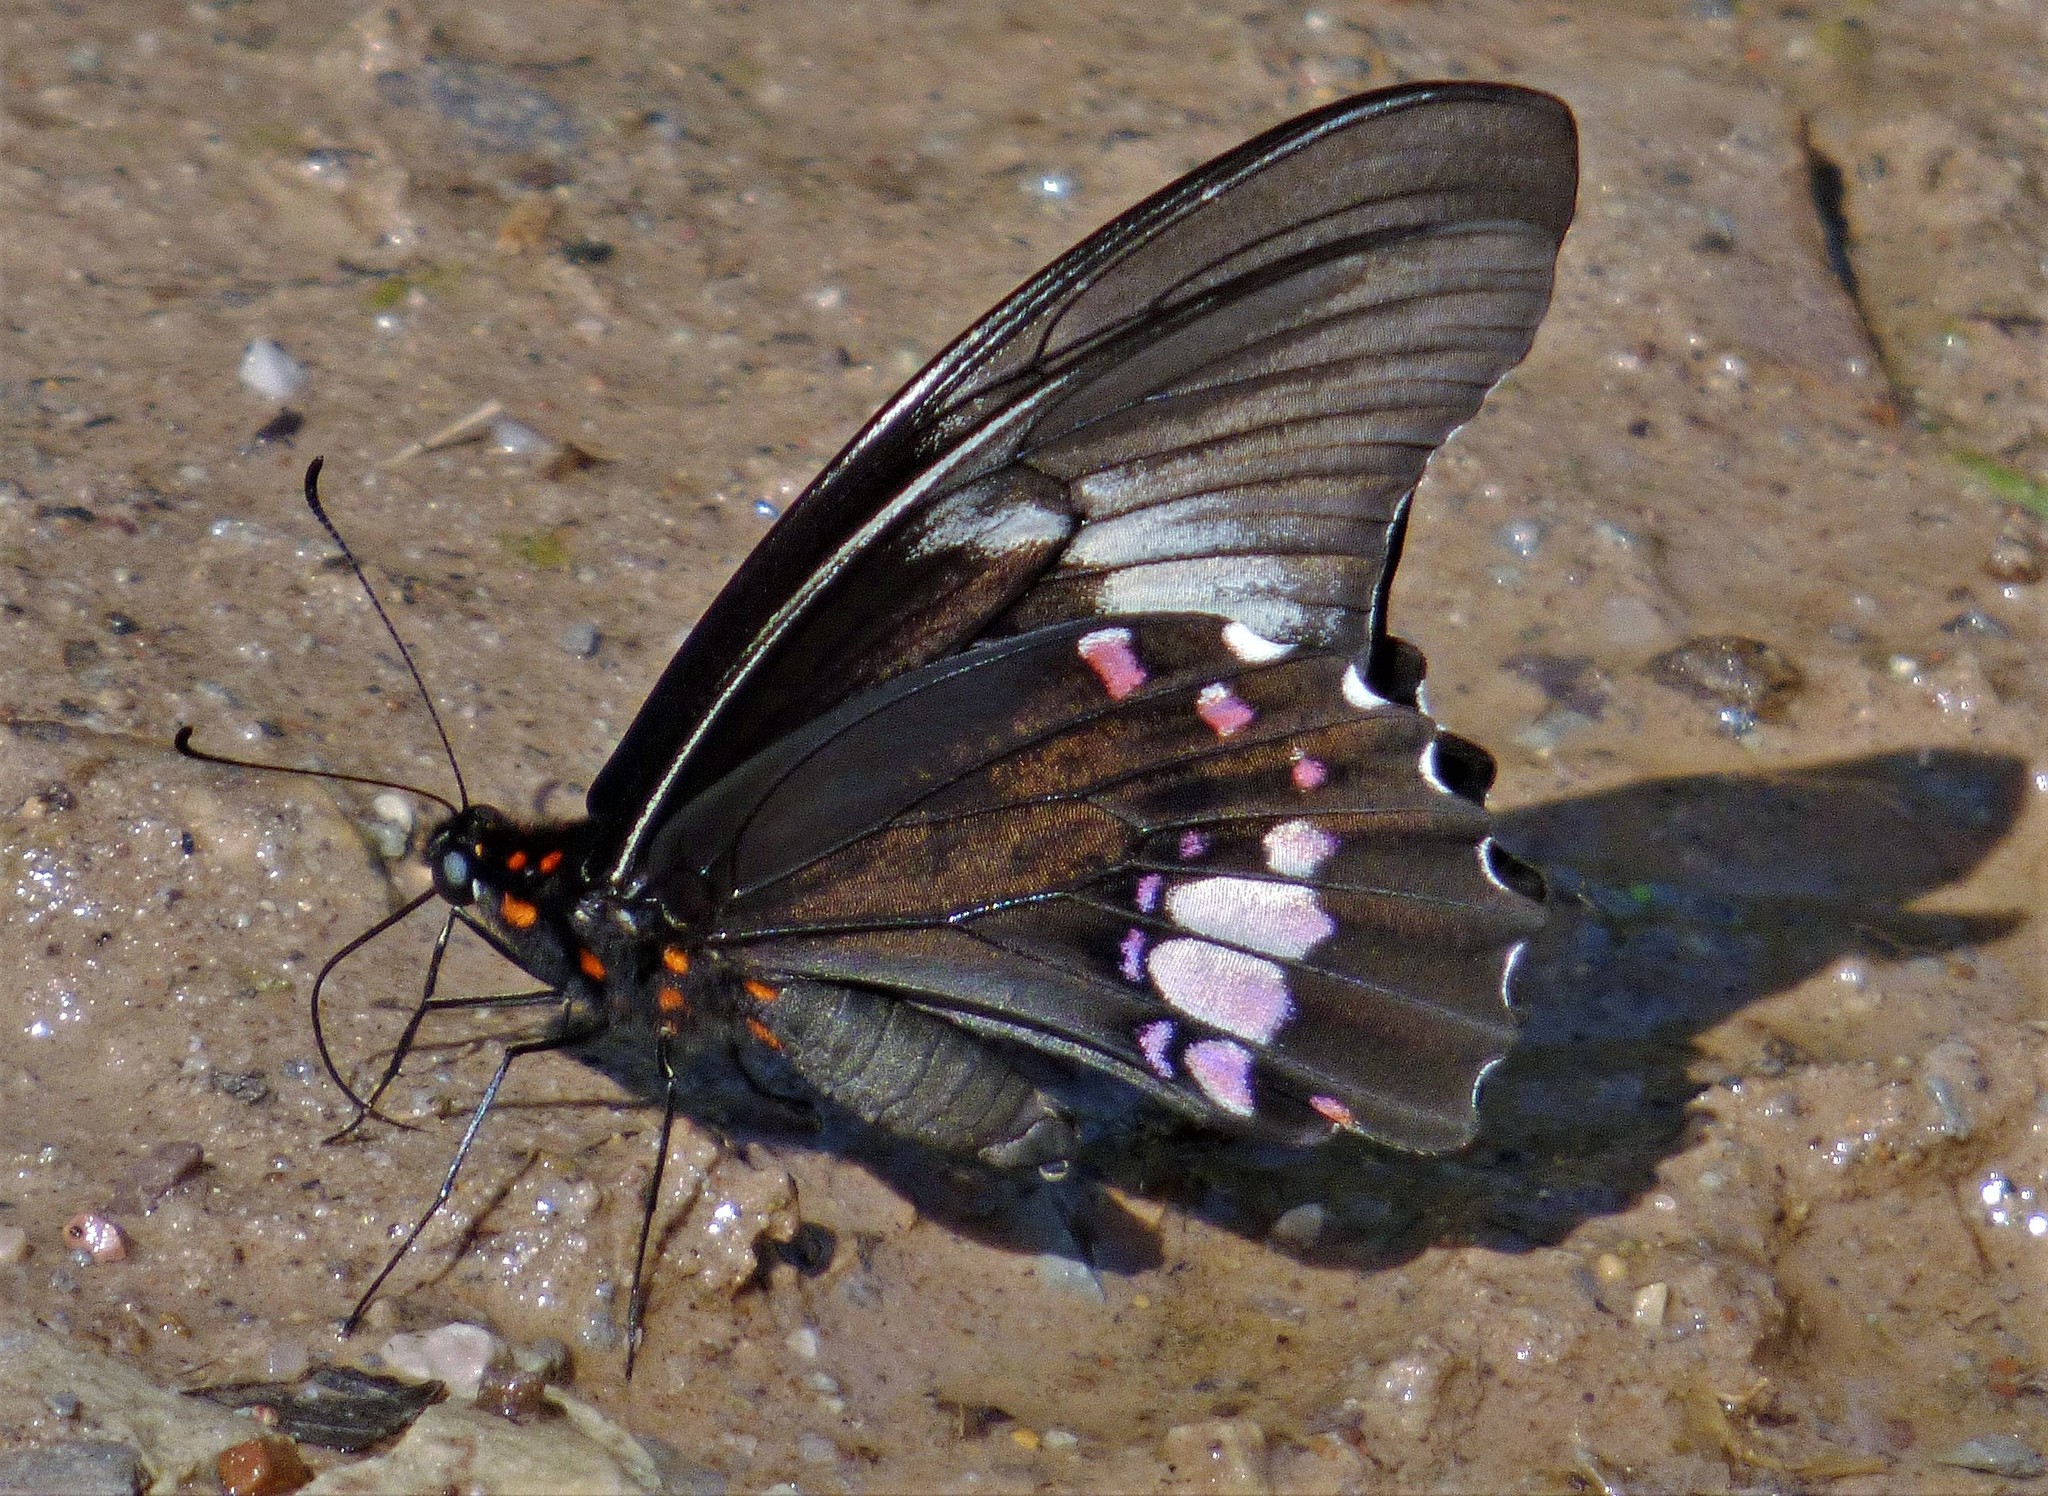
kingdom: Animalia
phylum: Arthropoda
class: Insecta
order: Lepidoptera
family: Papilionidae
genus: Papilio
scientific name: Papilio anchisiades
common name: Idaes swallowtail
